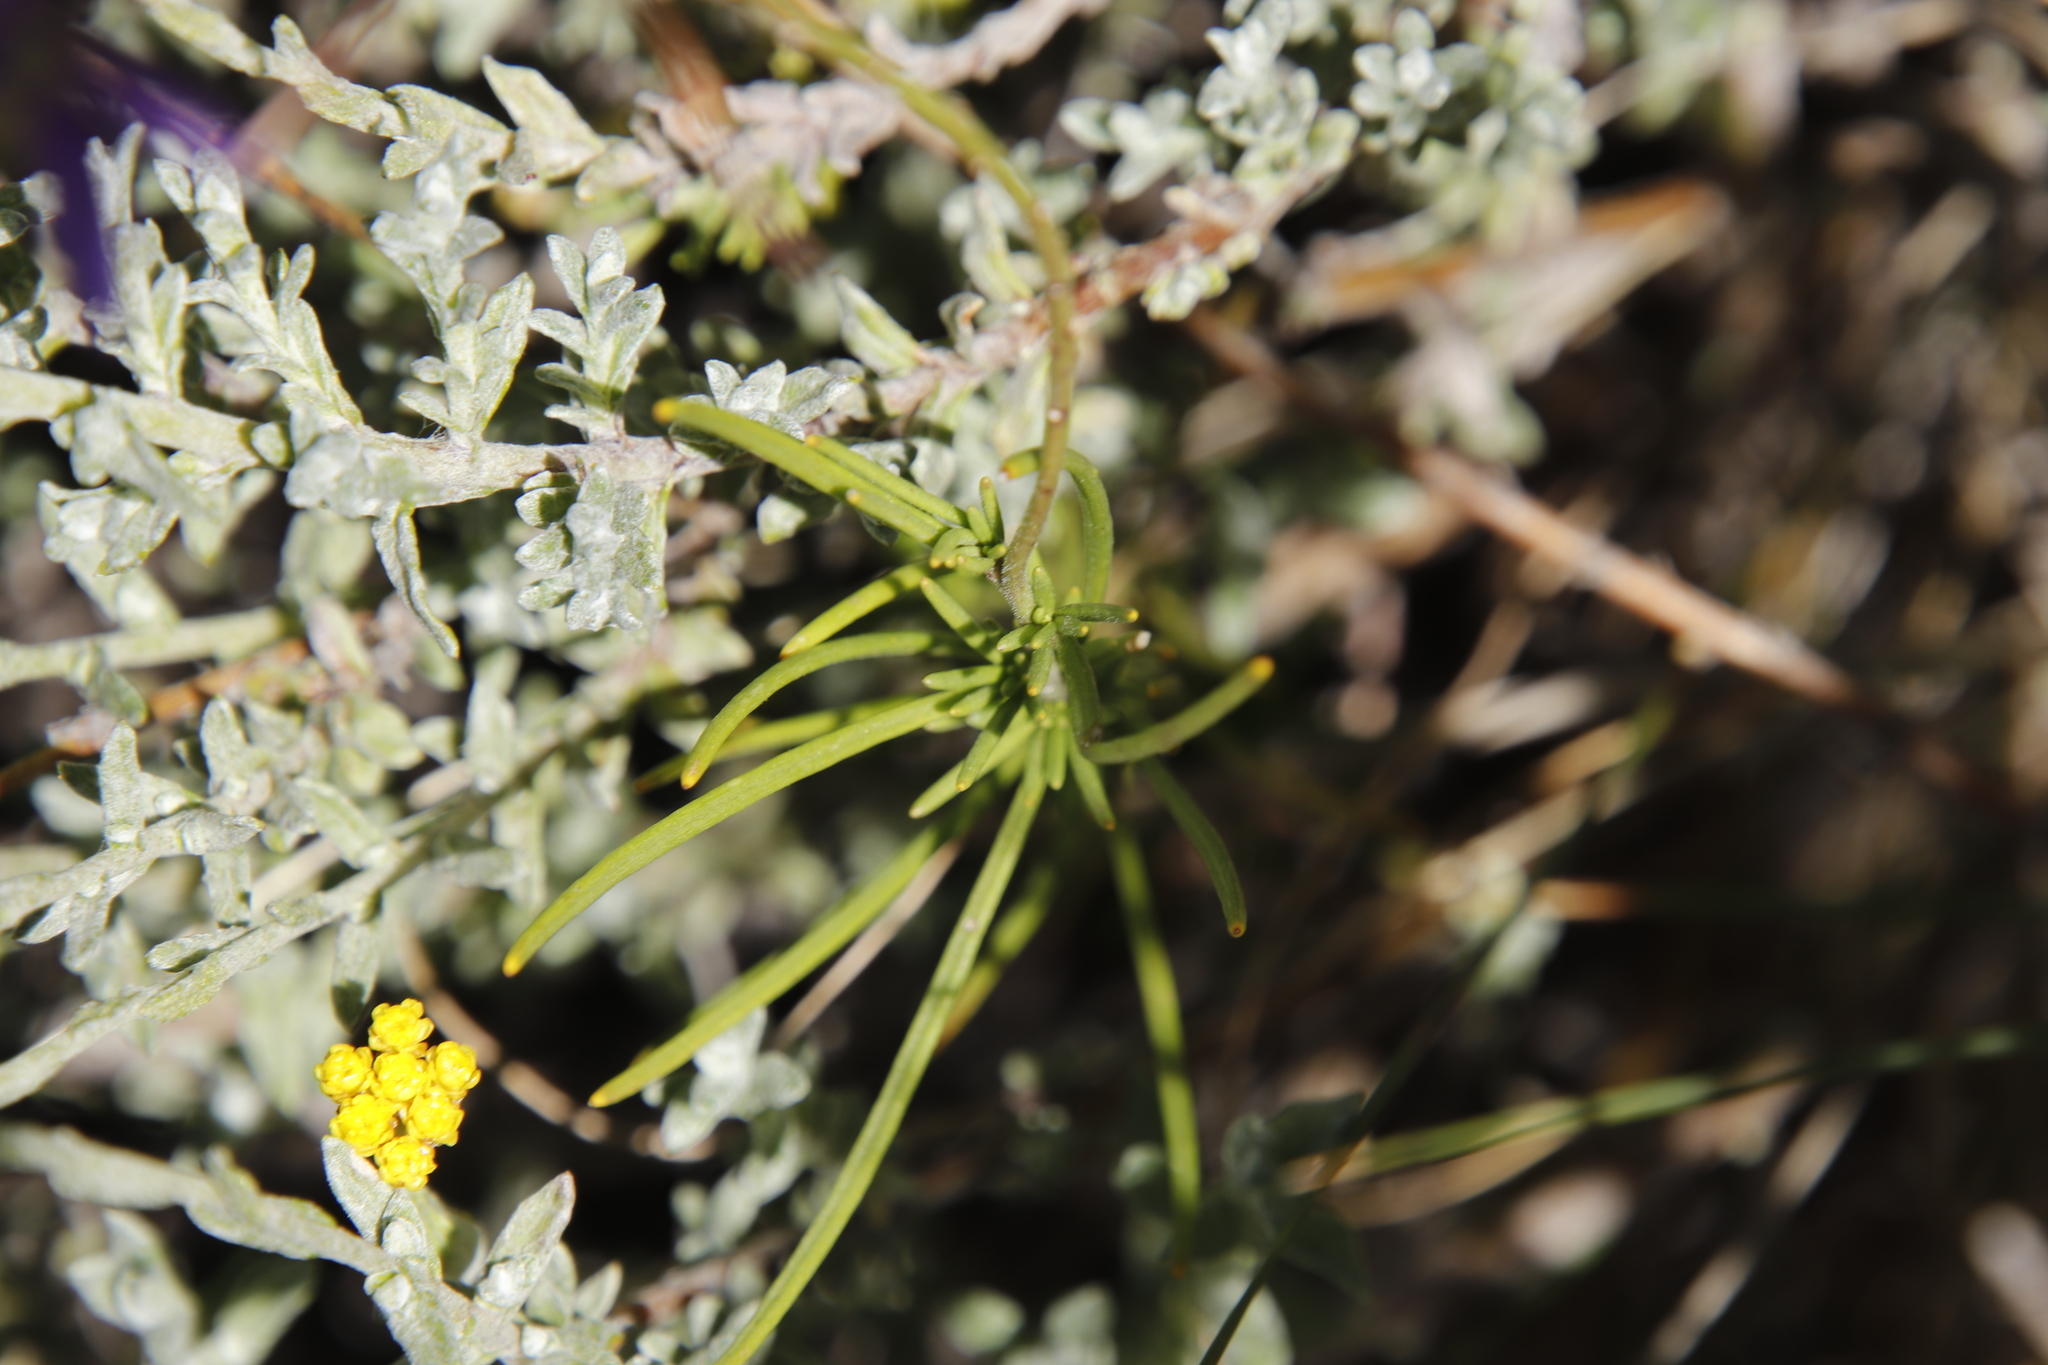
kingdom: Plantae
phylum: Tracheophyta
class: Magnoliopsida
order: Brassicales
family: Brassicaceae
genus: Heliophila
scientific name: Heliophila suavissima
